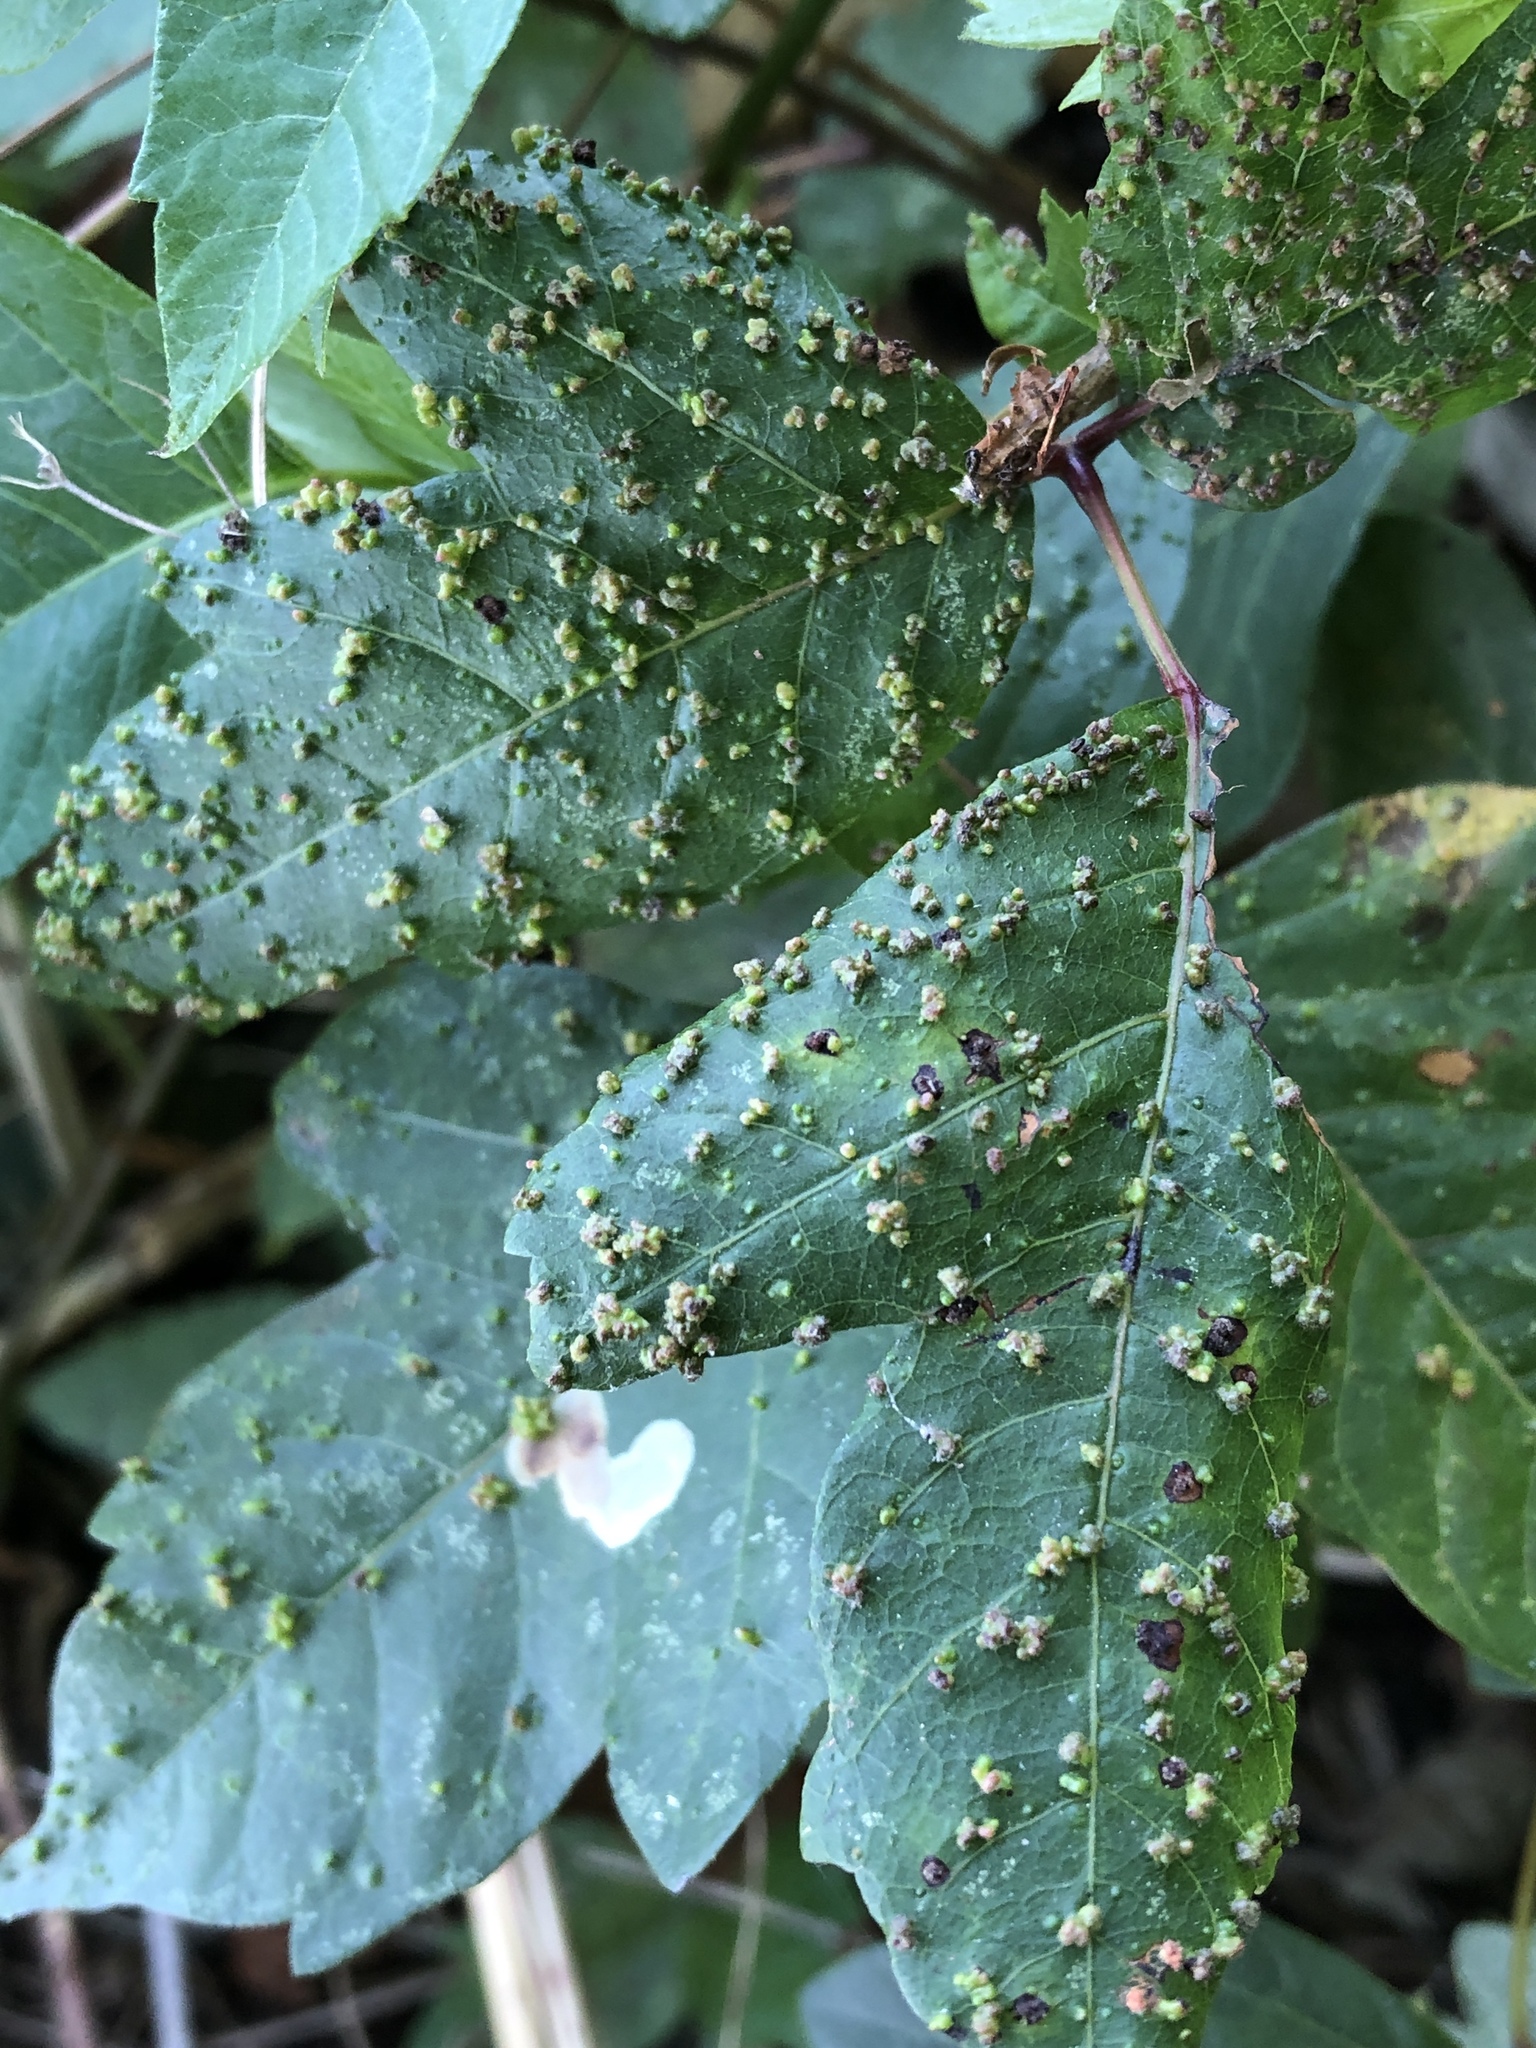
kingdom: Animalia
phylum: Arthropoda
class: Arachnida
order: Trombidiformes
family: Eriophyidae
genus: Aculops
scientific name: Aculops
